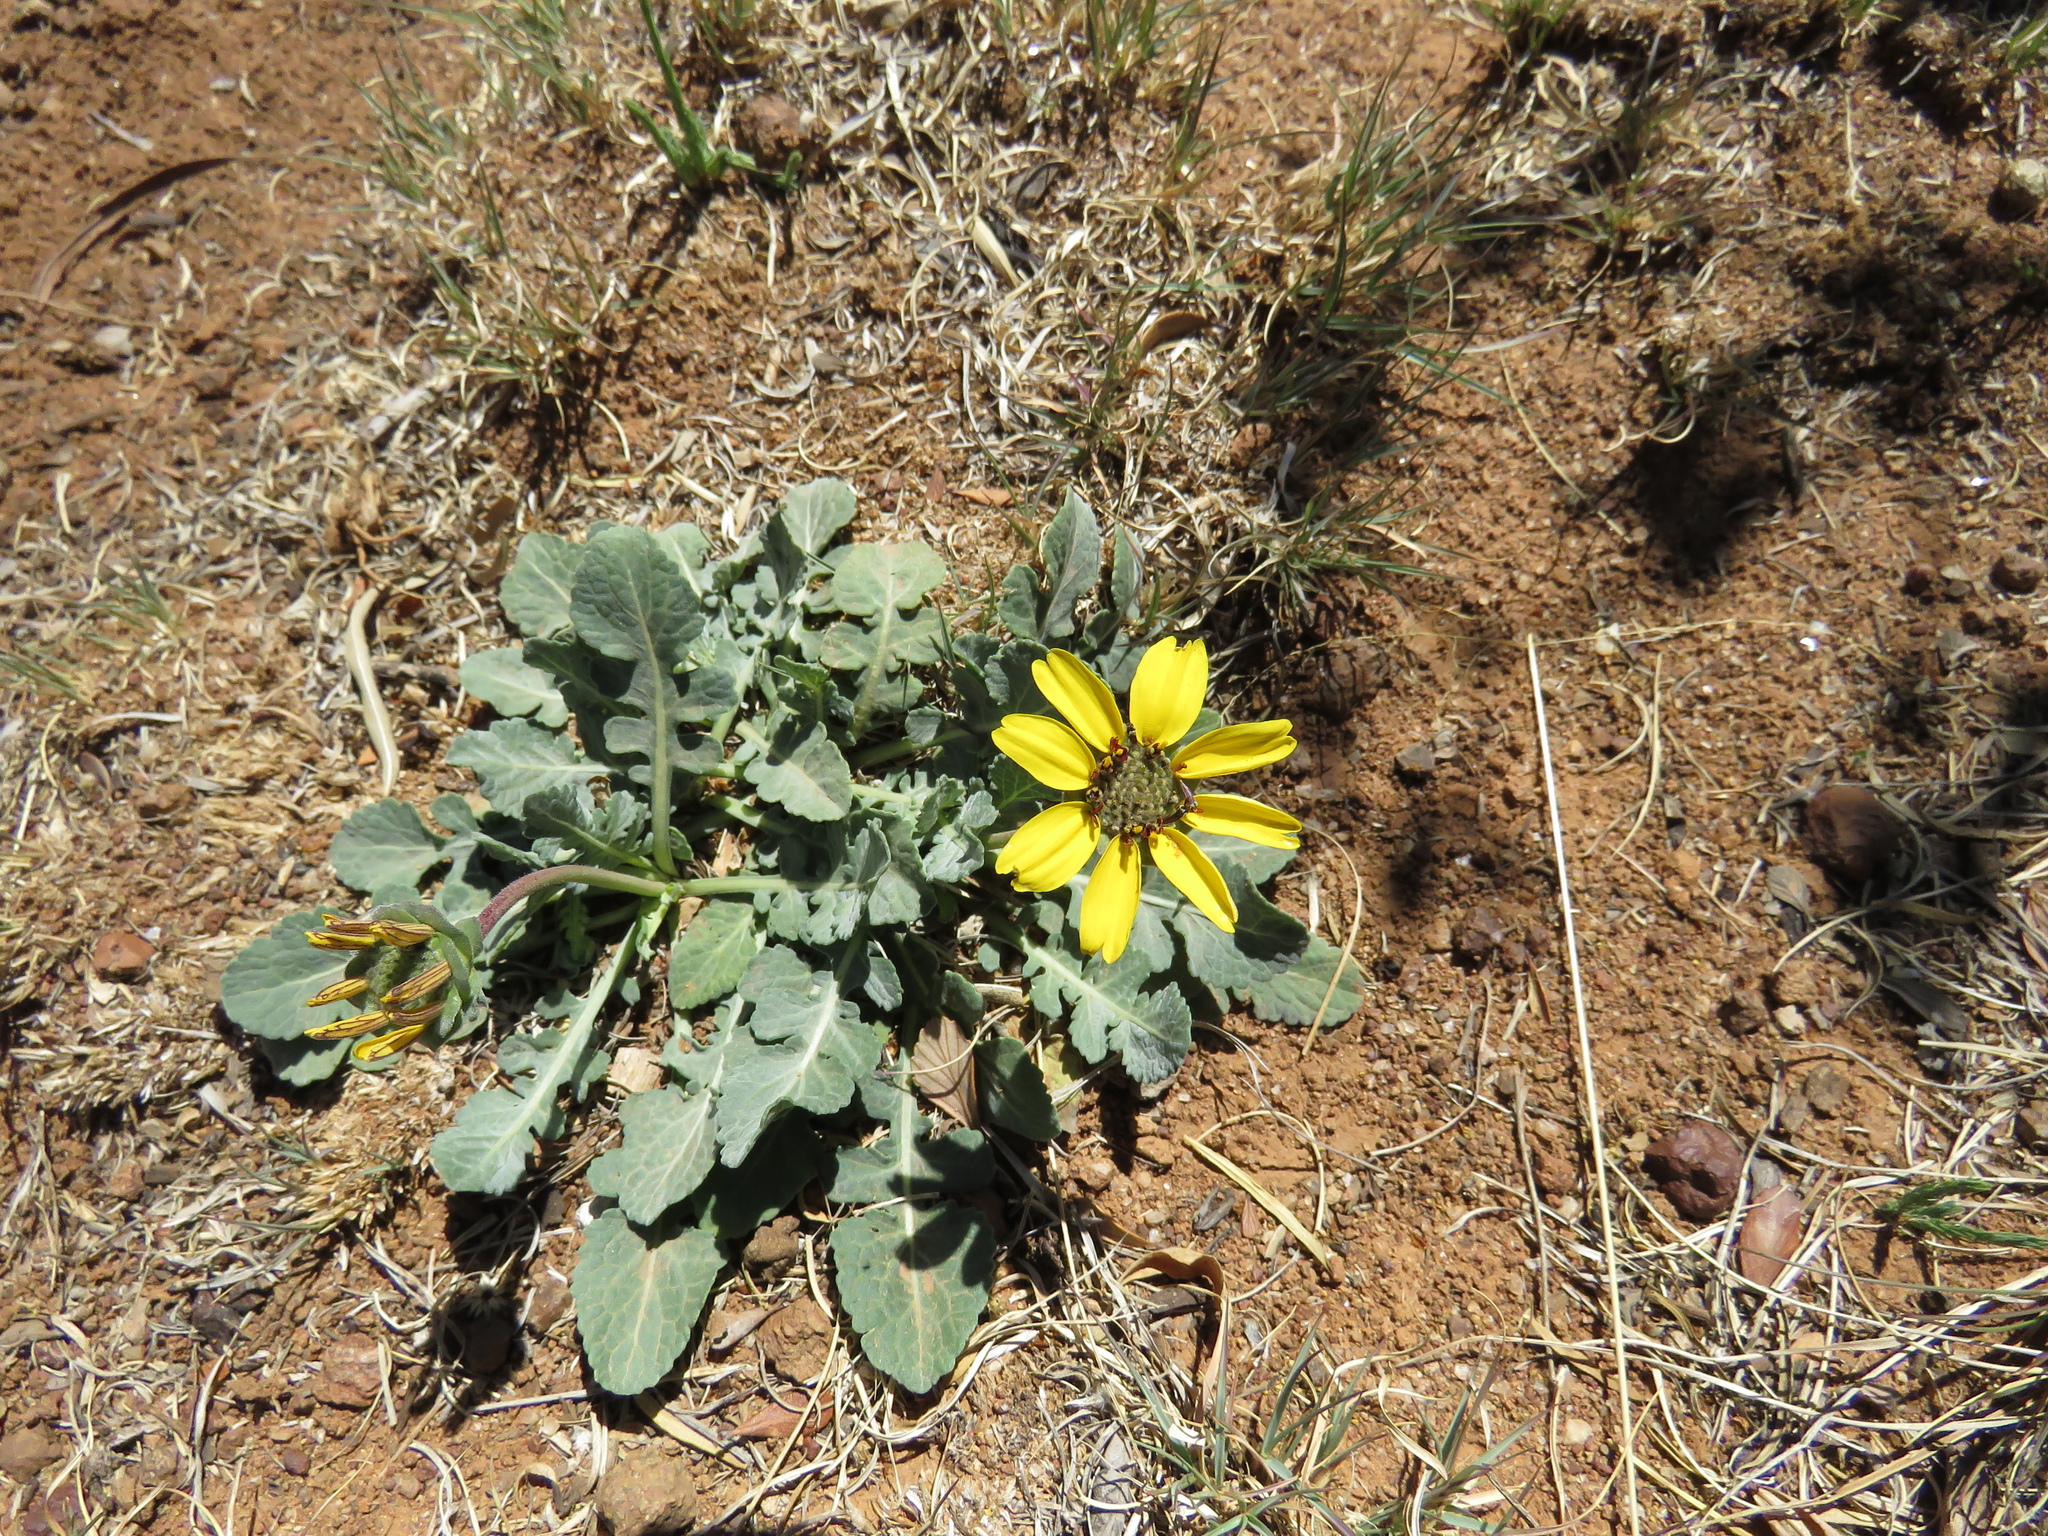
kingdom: Plantae
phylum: Tracheophyta
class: Magnoliopsida
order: Asterales
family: Asteraceae
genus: Berlandiera
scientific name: Berlandiera lyrata
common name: Chocolate-flower
